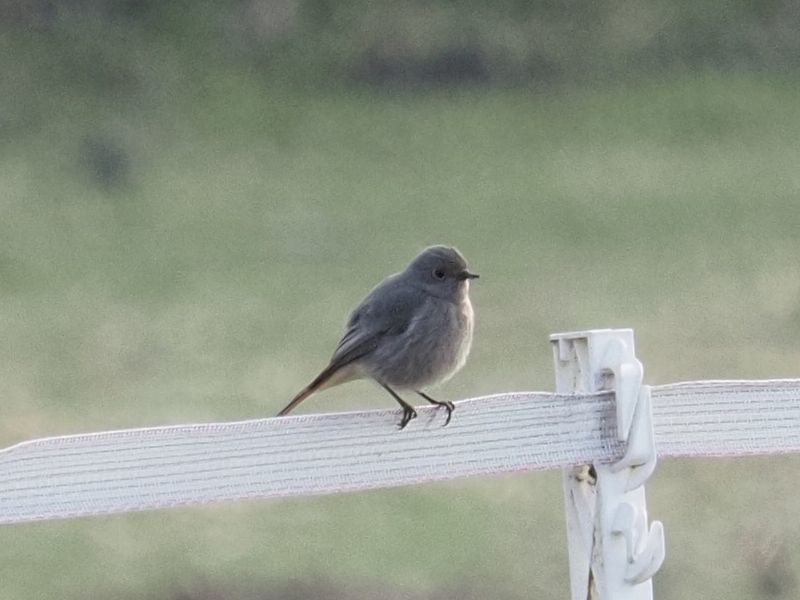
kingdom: Animalia
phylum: Chordata
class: Aves
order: Passeriformes
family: Muscicapidae
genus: Phoenicurus
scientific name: Phoenicurus ochruros
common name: Black redstart
